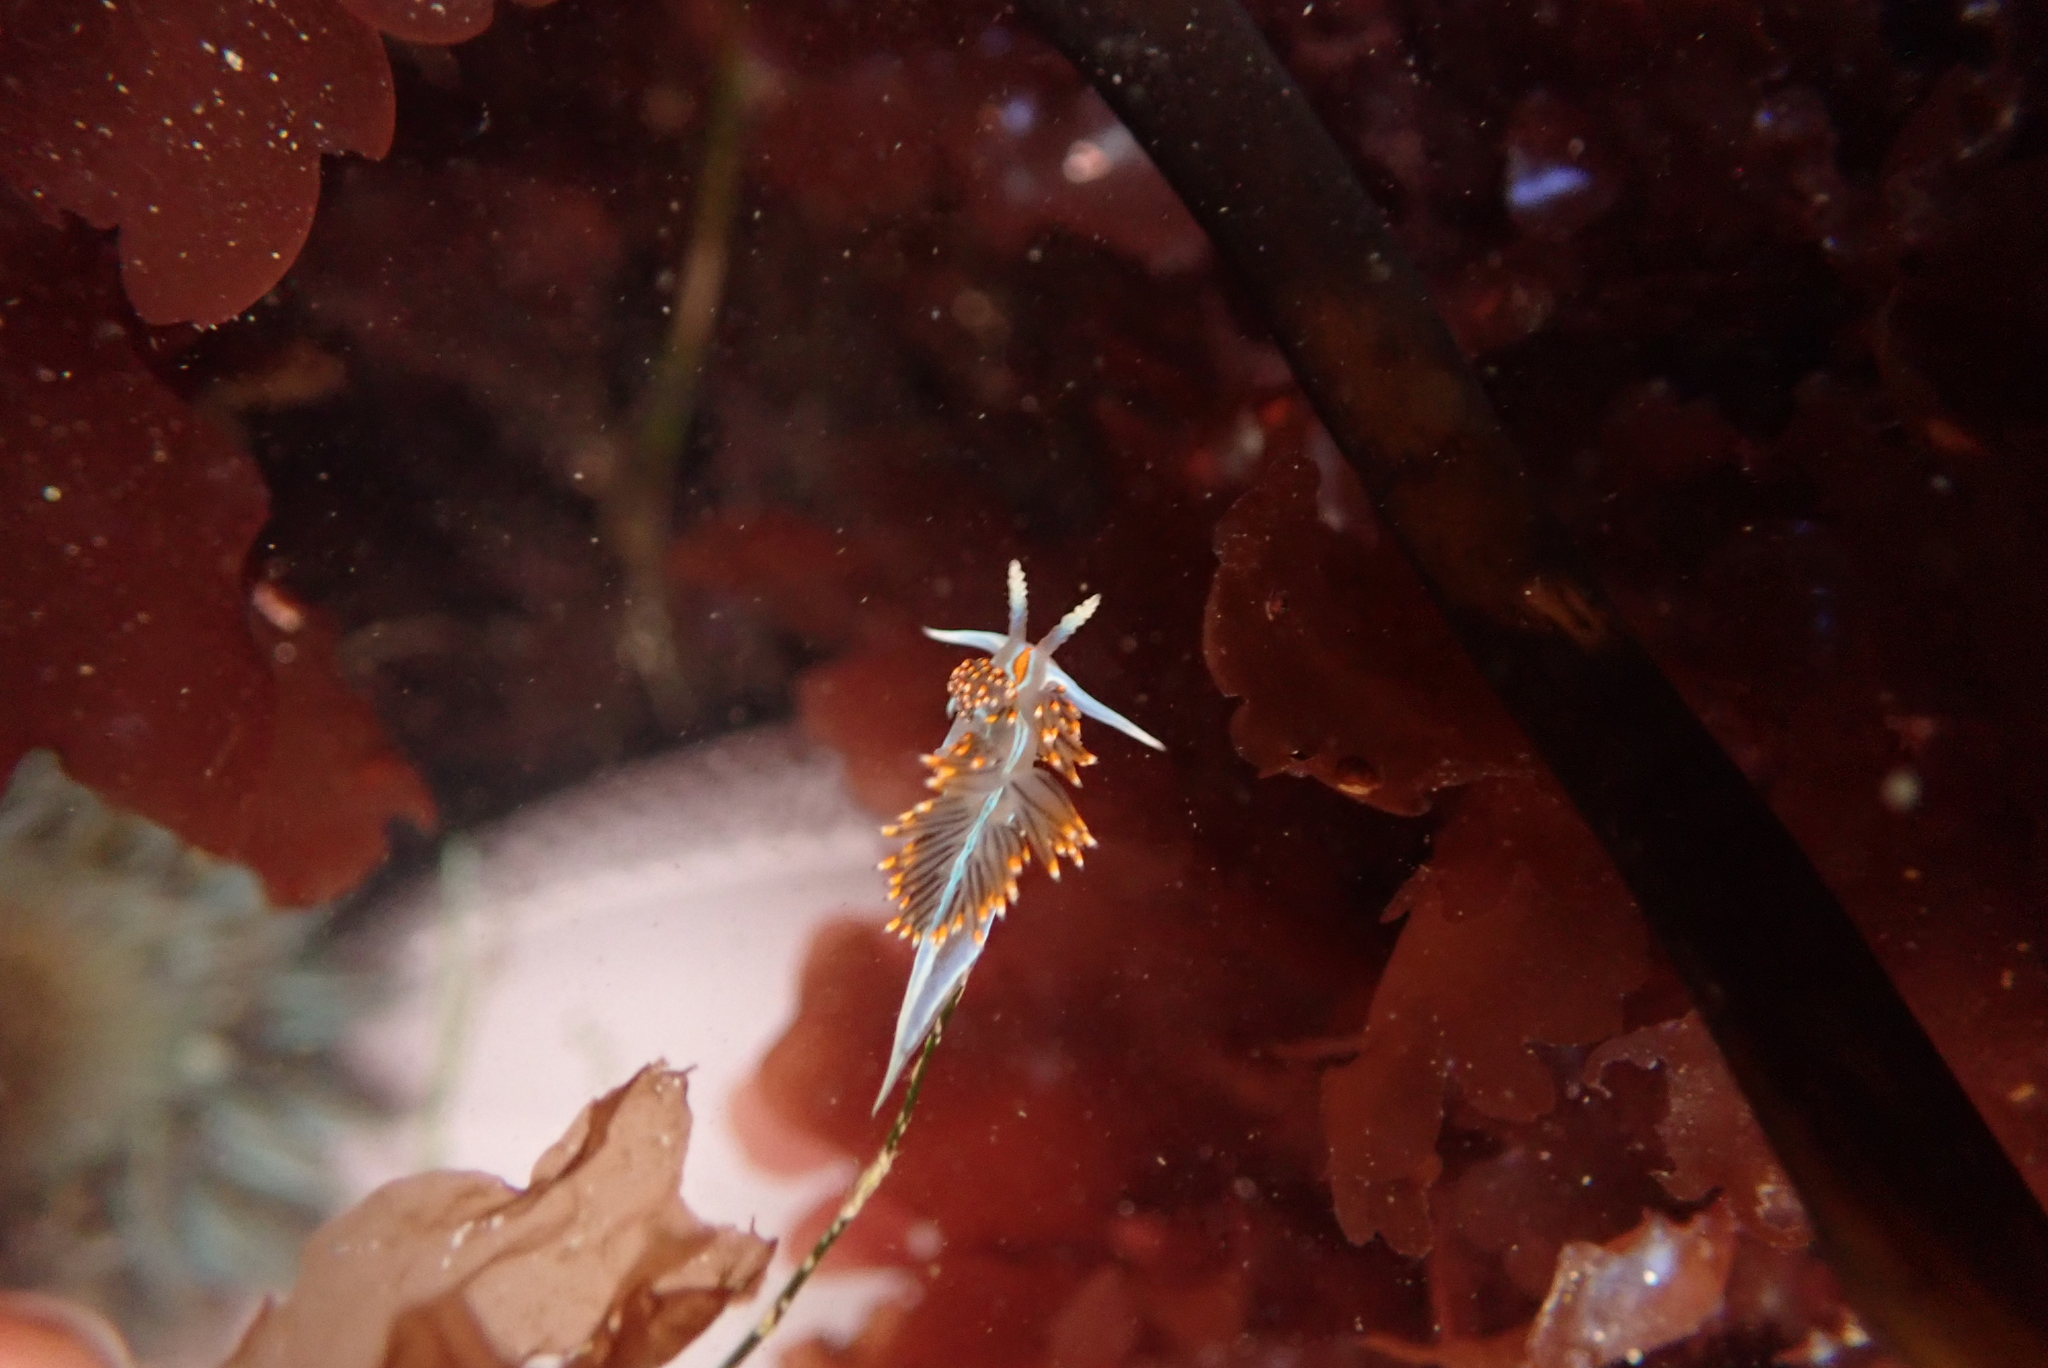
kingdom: Animalia
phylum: Mollusca
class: Gastropoda
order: Nudibranchia
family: Myrrhinidae
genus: Hermissenda
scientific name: Hermissenda opalescens
